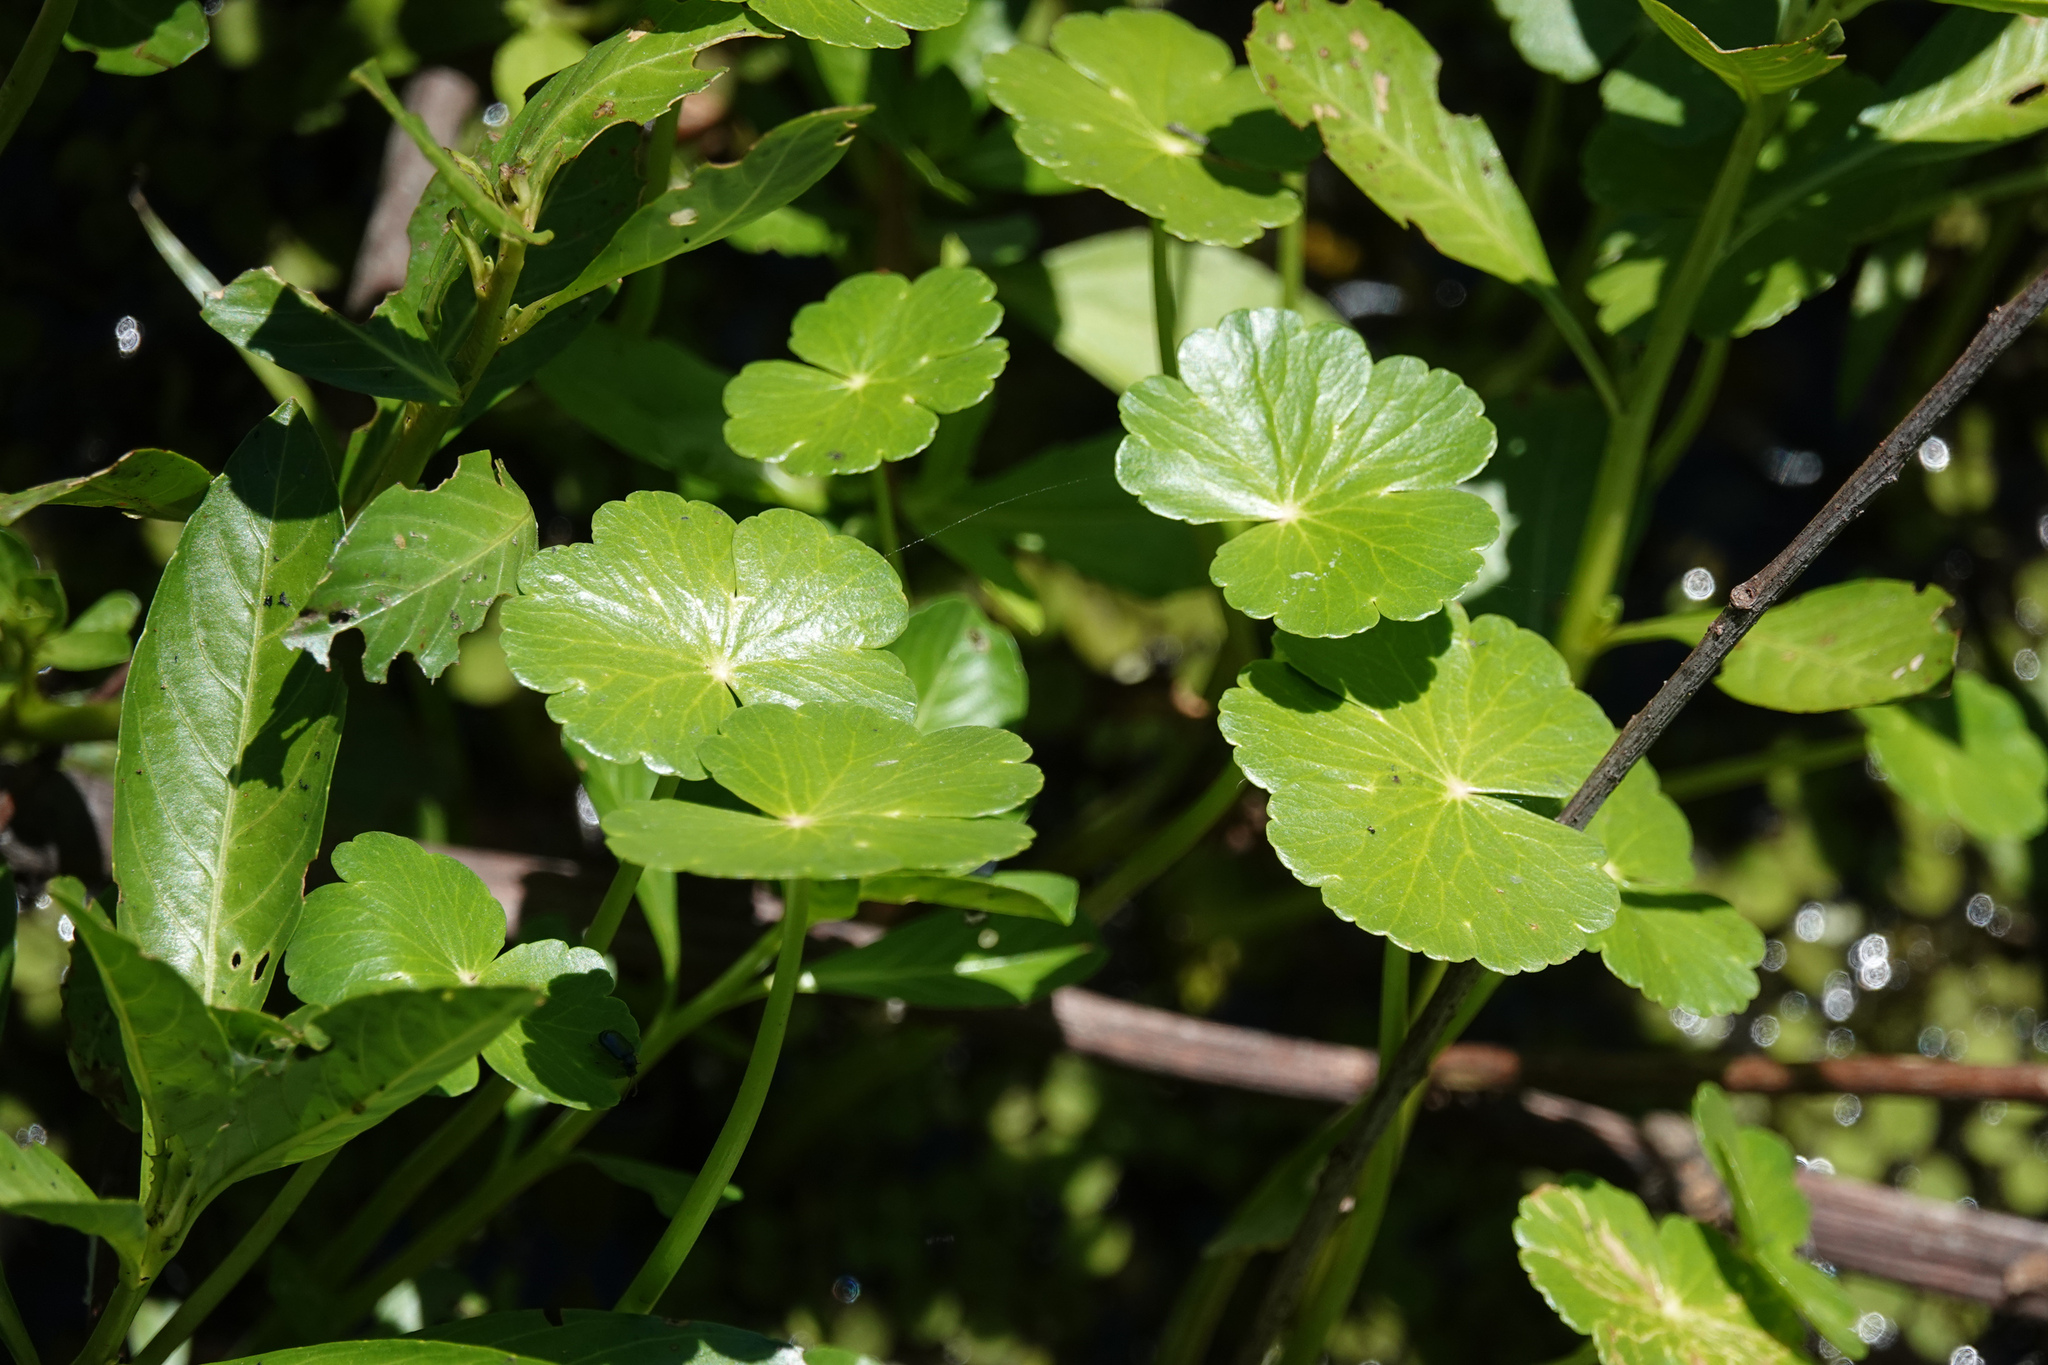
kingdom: Plantae
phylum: Tracheophyta
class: Magnoliopsida
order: Apiales
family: Araliaceae
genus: Hydrocotyle
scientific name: Hydrocotyle ranunculoides
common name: Floating pennywort
